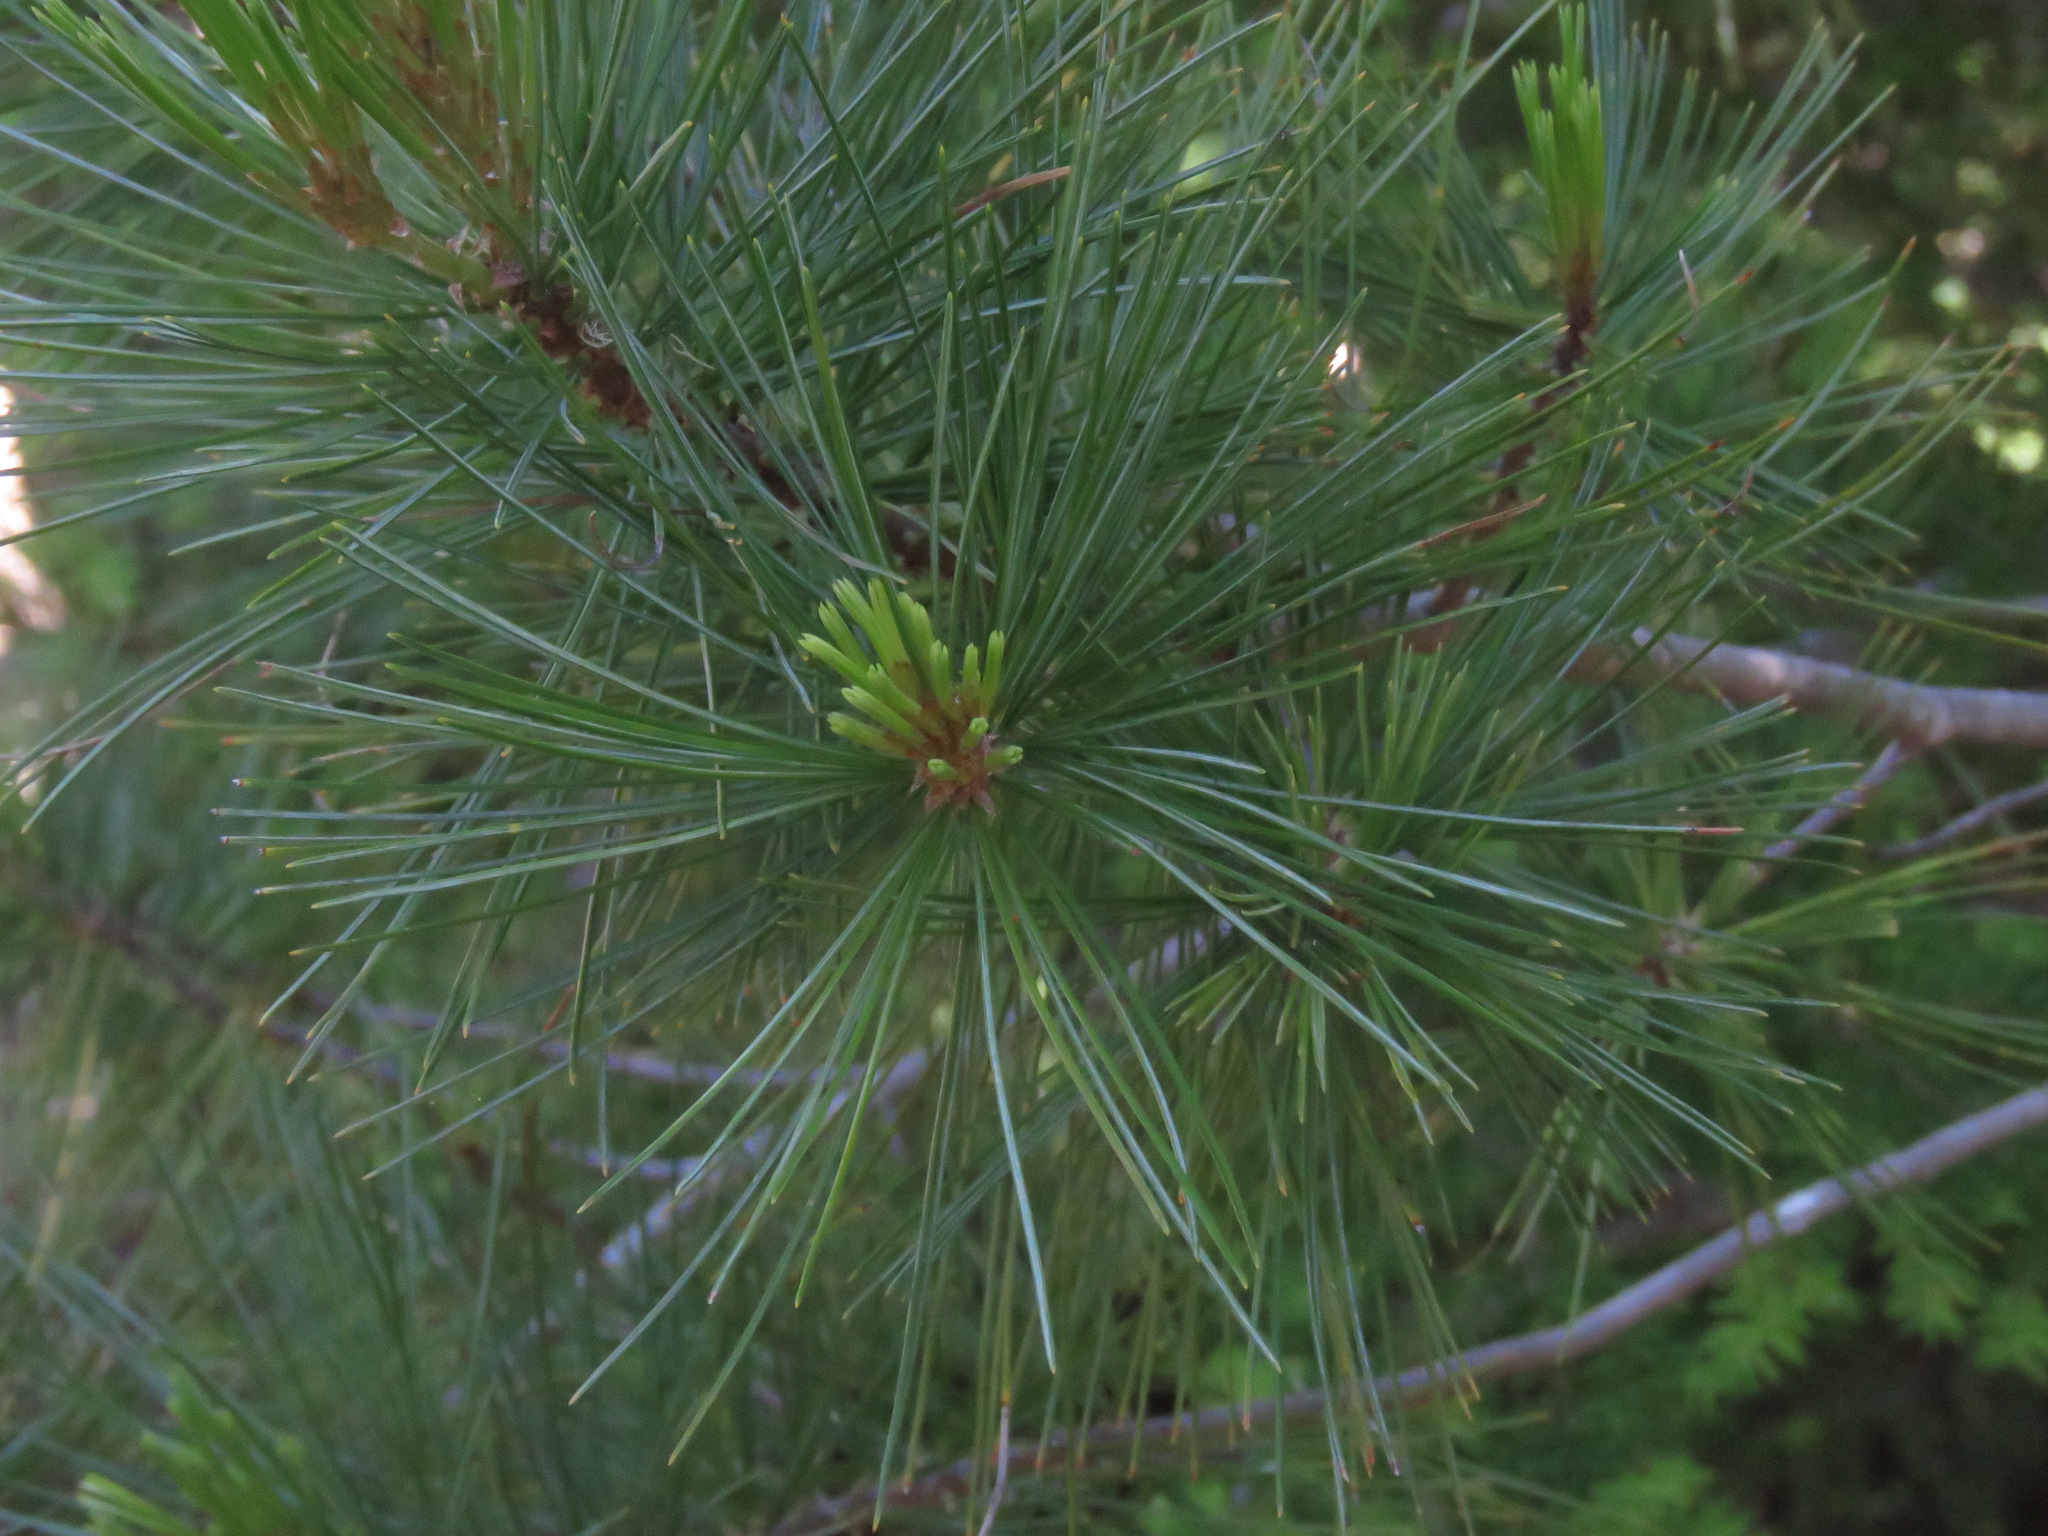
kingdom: Plantae
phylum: Tracheophyta
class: Pinopsida
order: Pinales
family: Pinaceae
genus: Pinus
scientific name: Pinus monticola
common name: Western white pine
